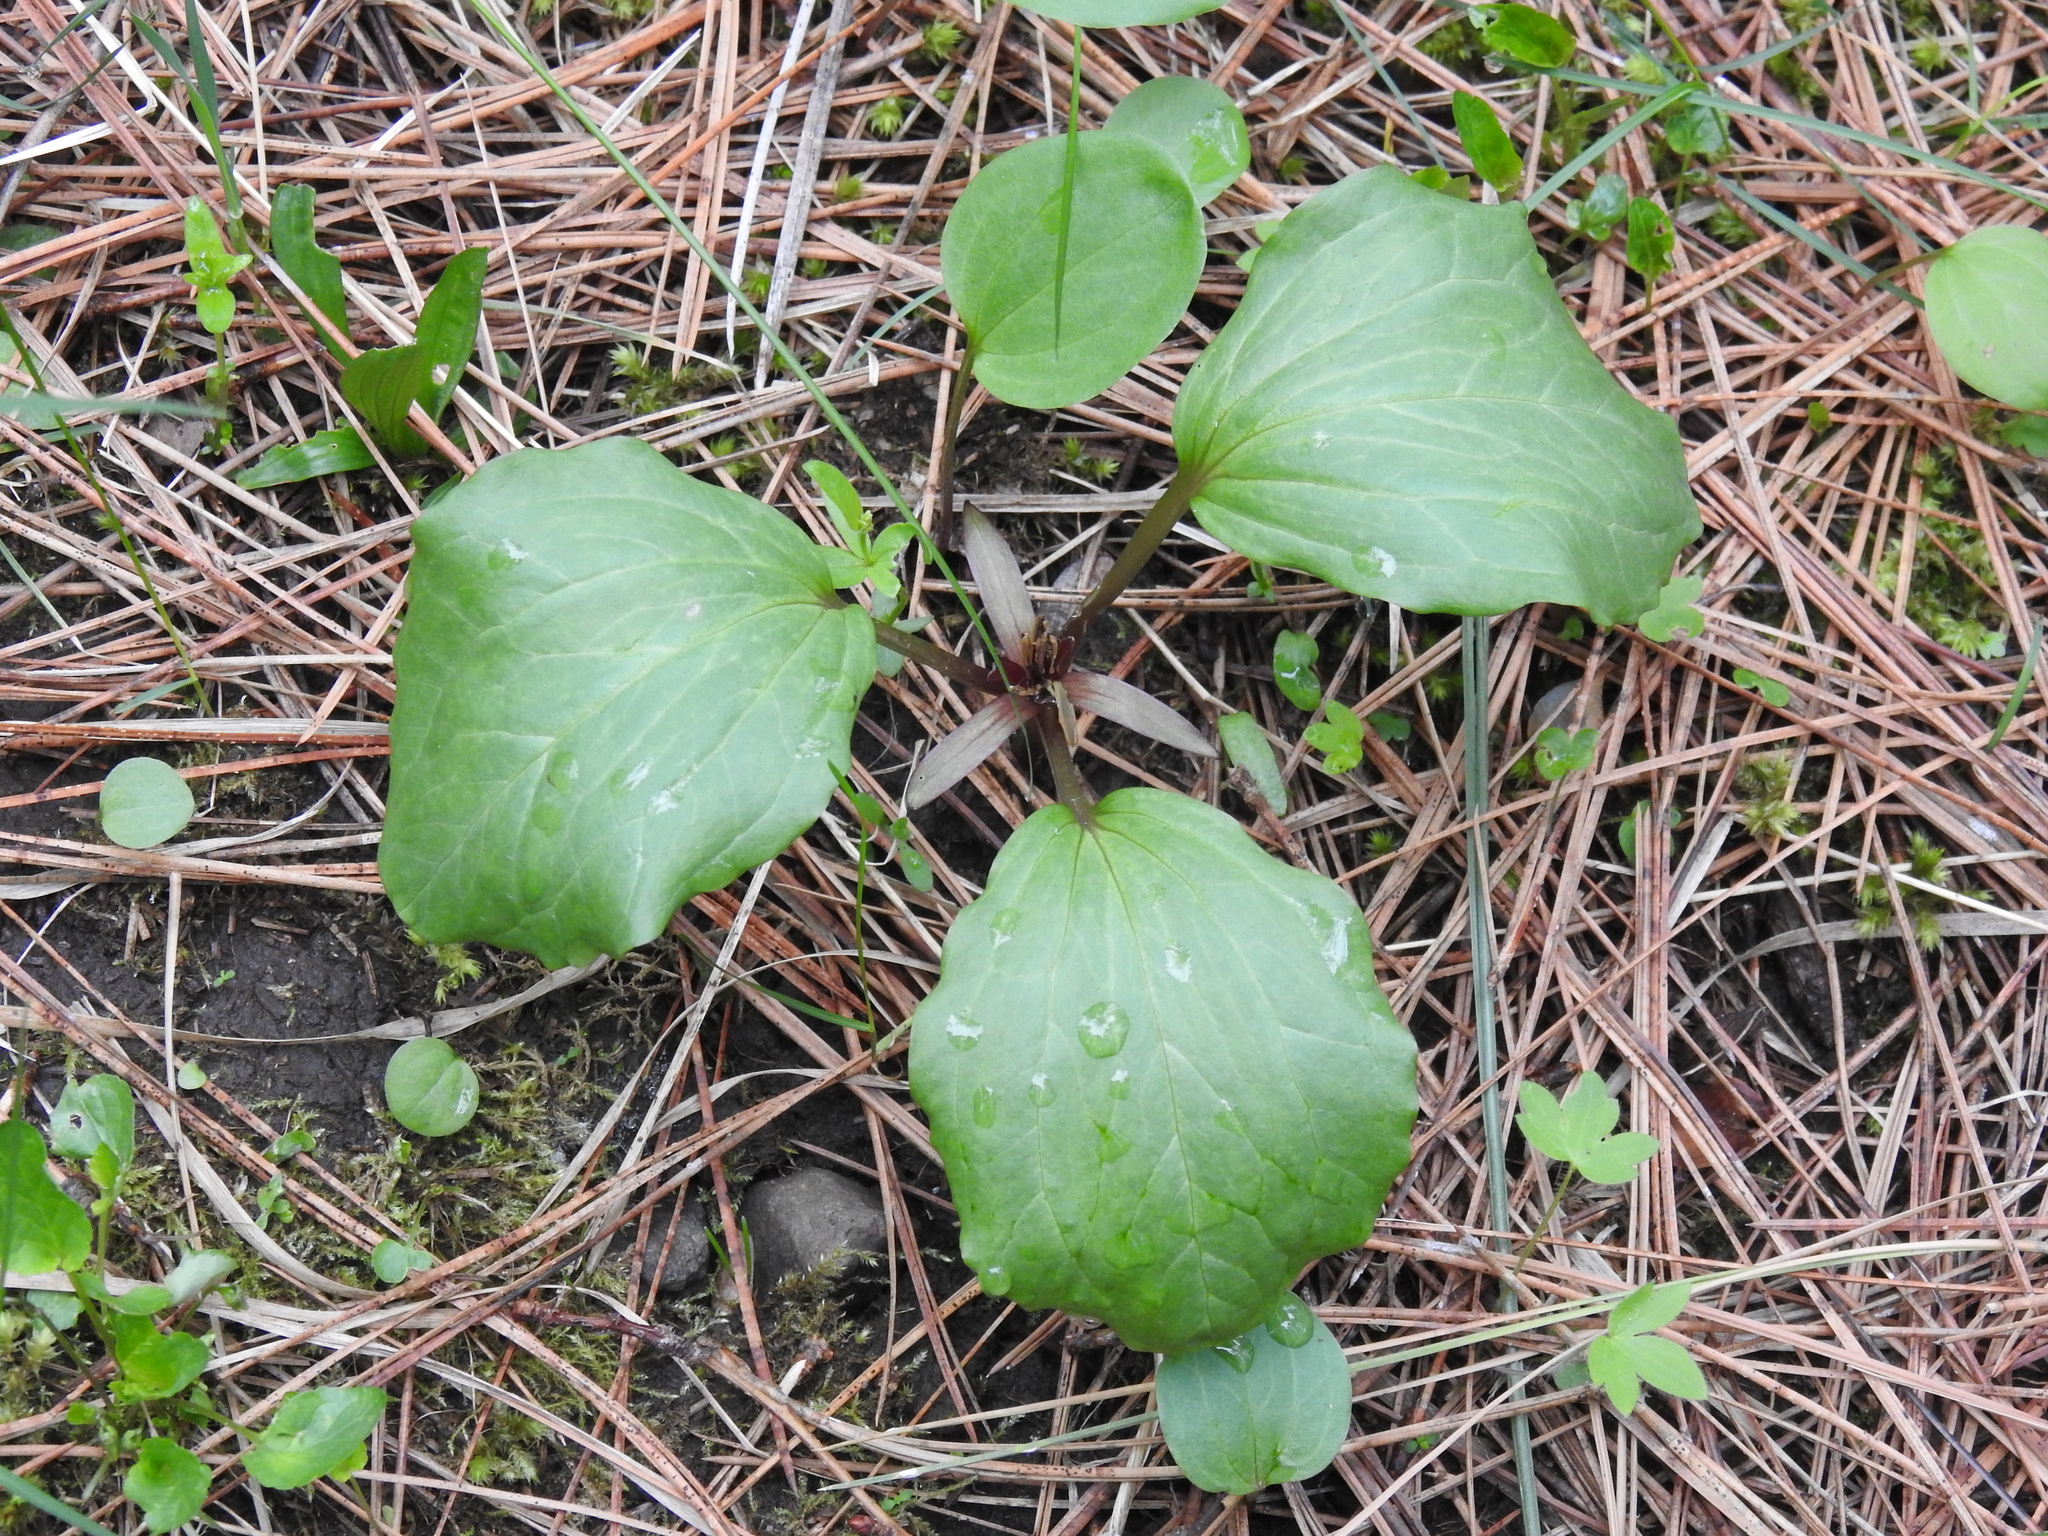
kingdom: Plantae
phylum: Tracheophyta
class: Liliopsida
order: Liliales
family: Melanthiaceae
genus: Trillium
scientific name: Trillium petiolatum
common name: Idaho trillium
